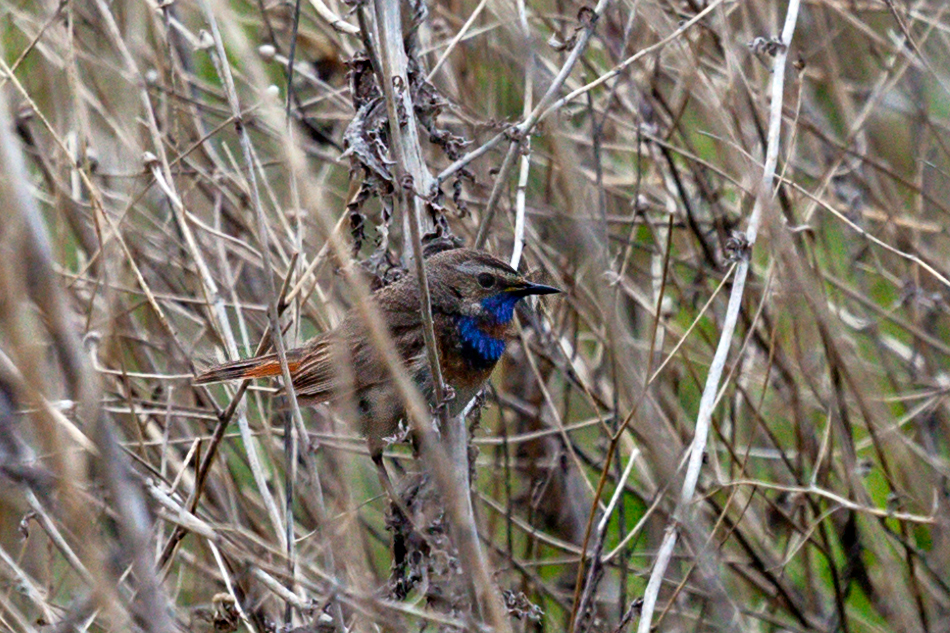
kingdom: Animalia
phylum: Chordata
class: Aves
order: Passeriformes
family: Muscicapidae
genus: Luscinia
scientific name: Luscinia svecica
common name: Bluethroat
